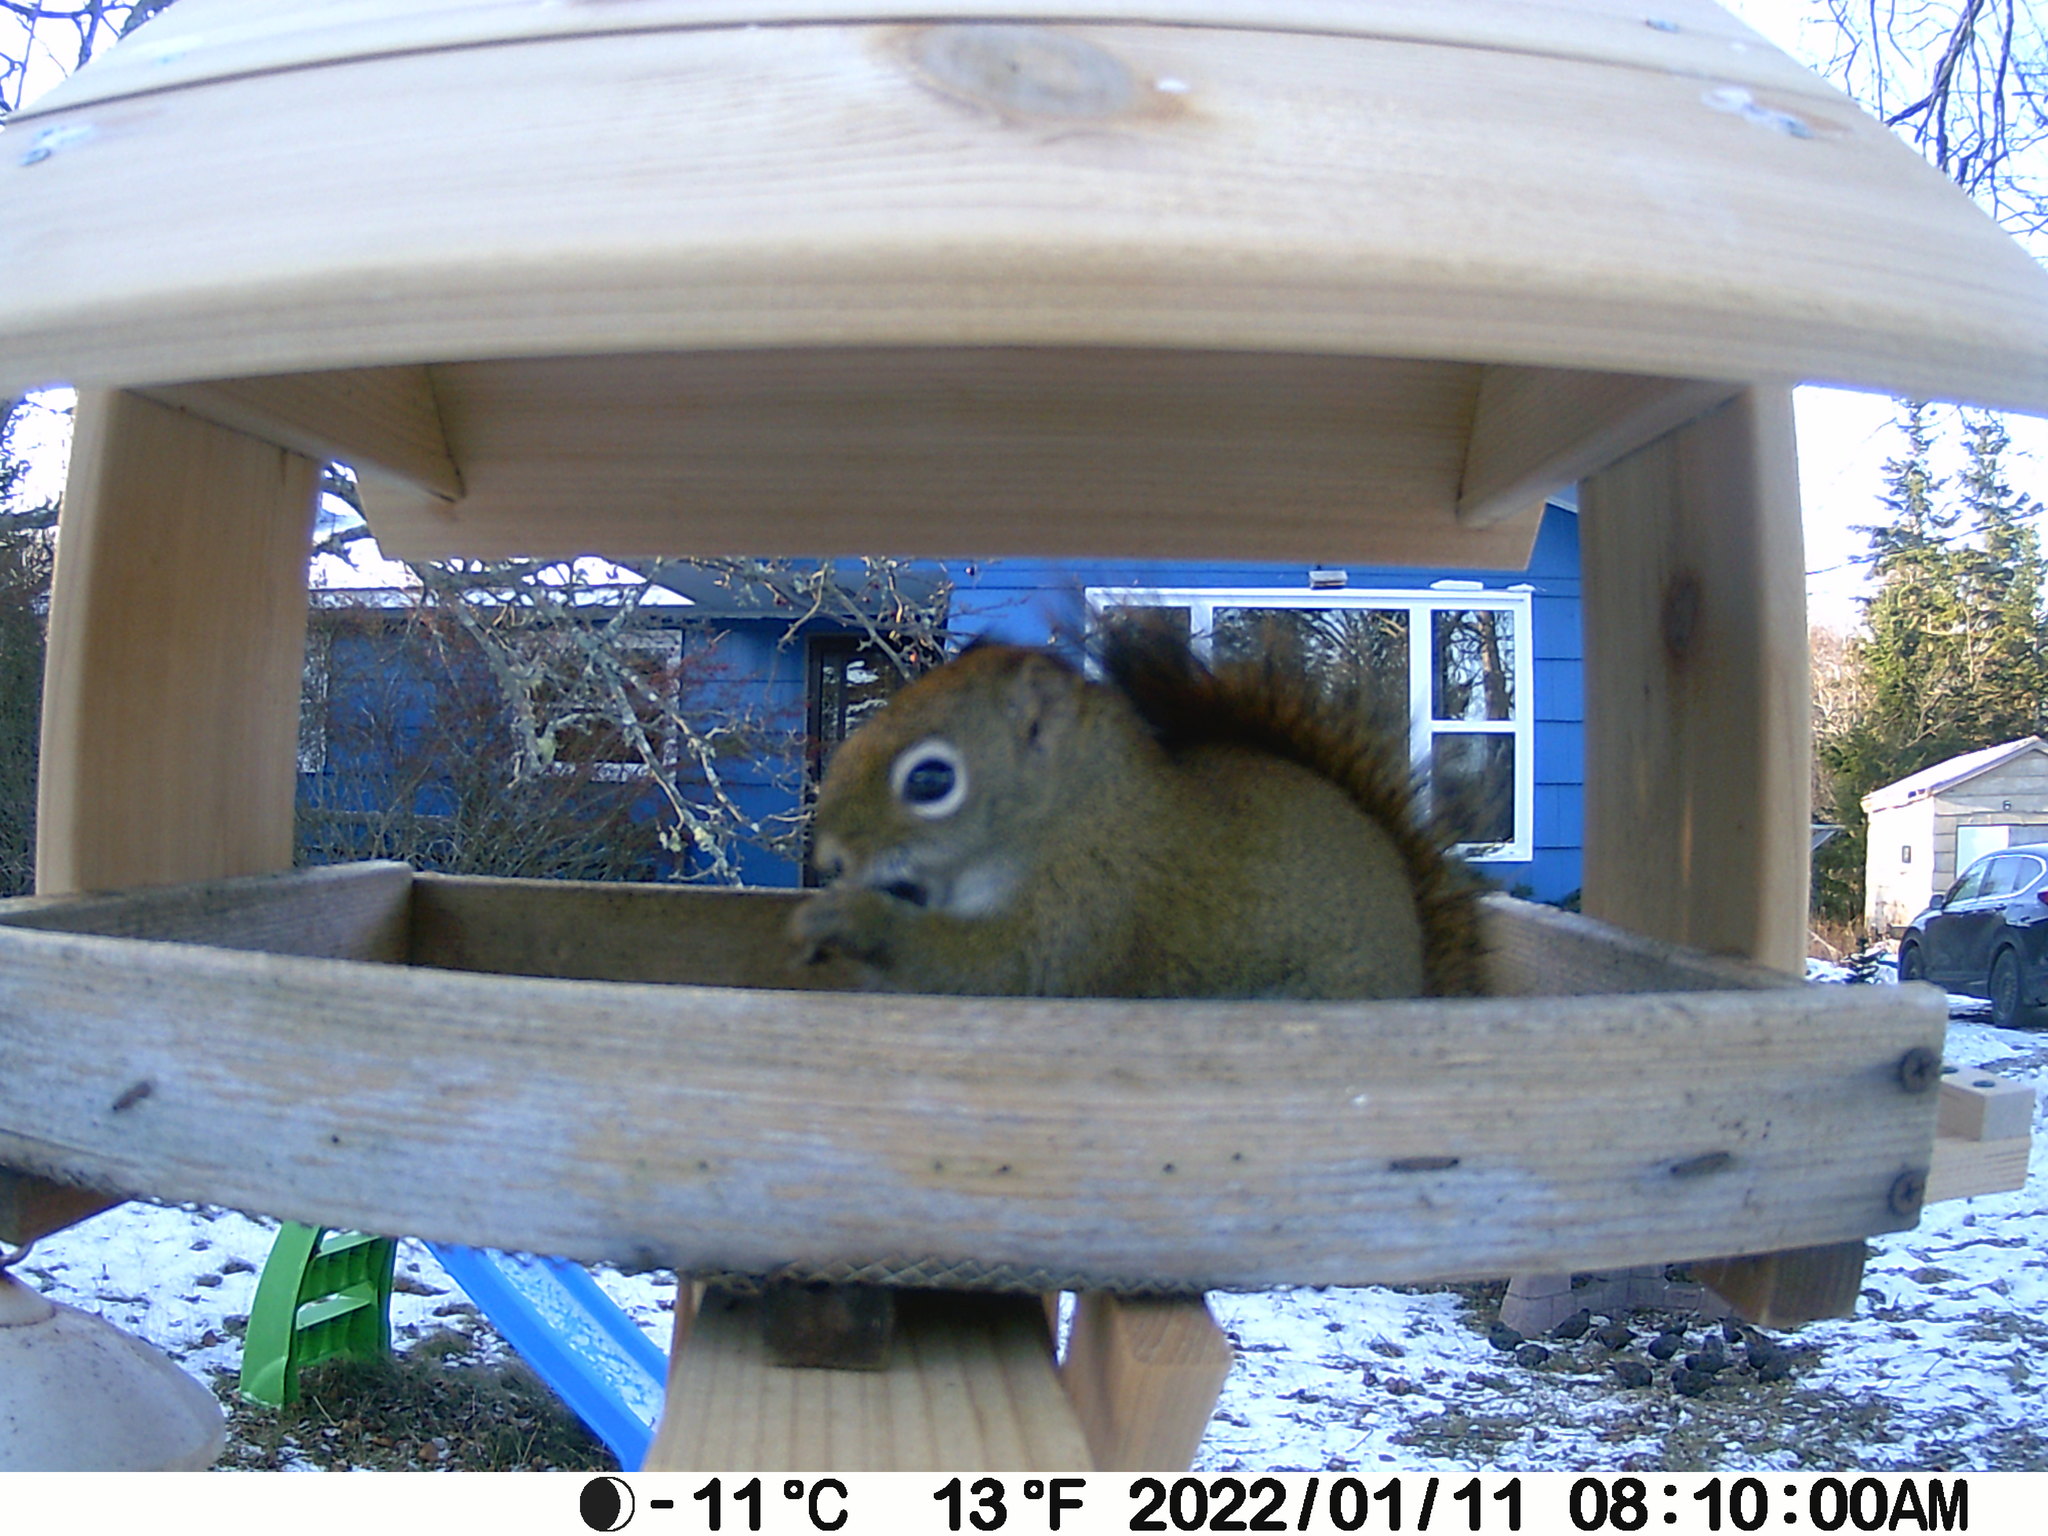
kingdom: Animalia
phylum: Chordata
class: Aves
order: Passeriformes
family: Sturnidae
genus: Sturnus
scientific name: Sturnus vulgaris
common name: Common starling
